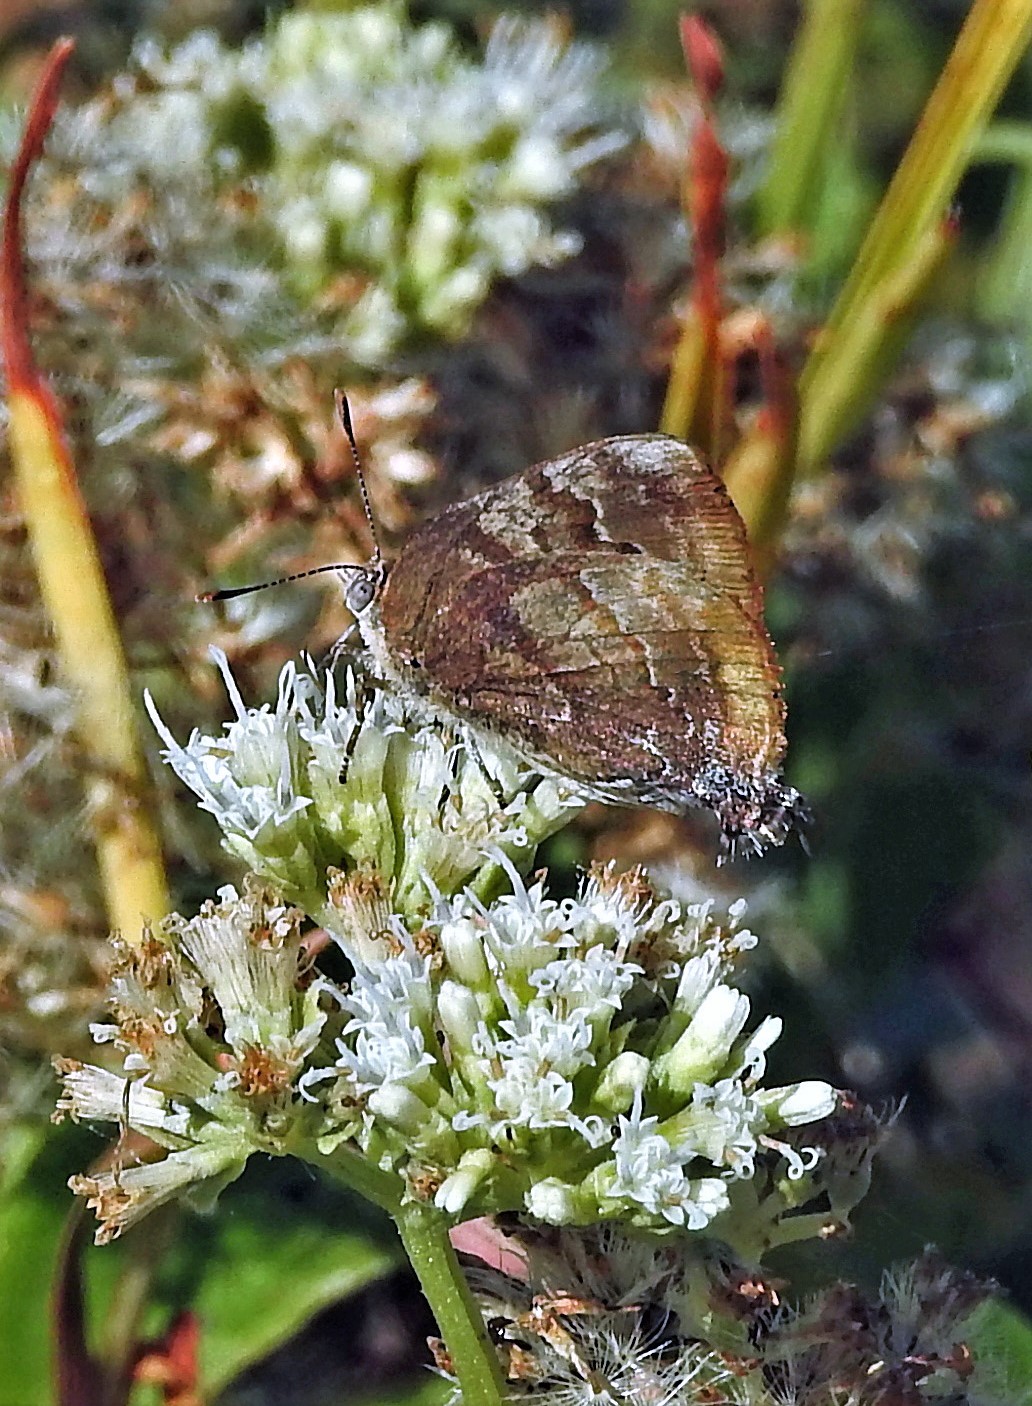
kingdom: Animalia
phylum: Arthropoda
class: Insecta
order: Lepidoptera
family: Lycaenidae
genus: Rekoa
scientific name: Rekoa palegon
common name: Gold-bordered hairstreak
